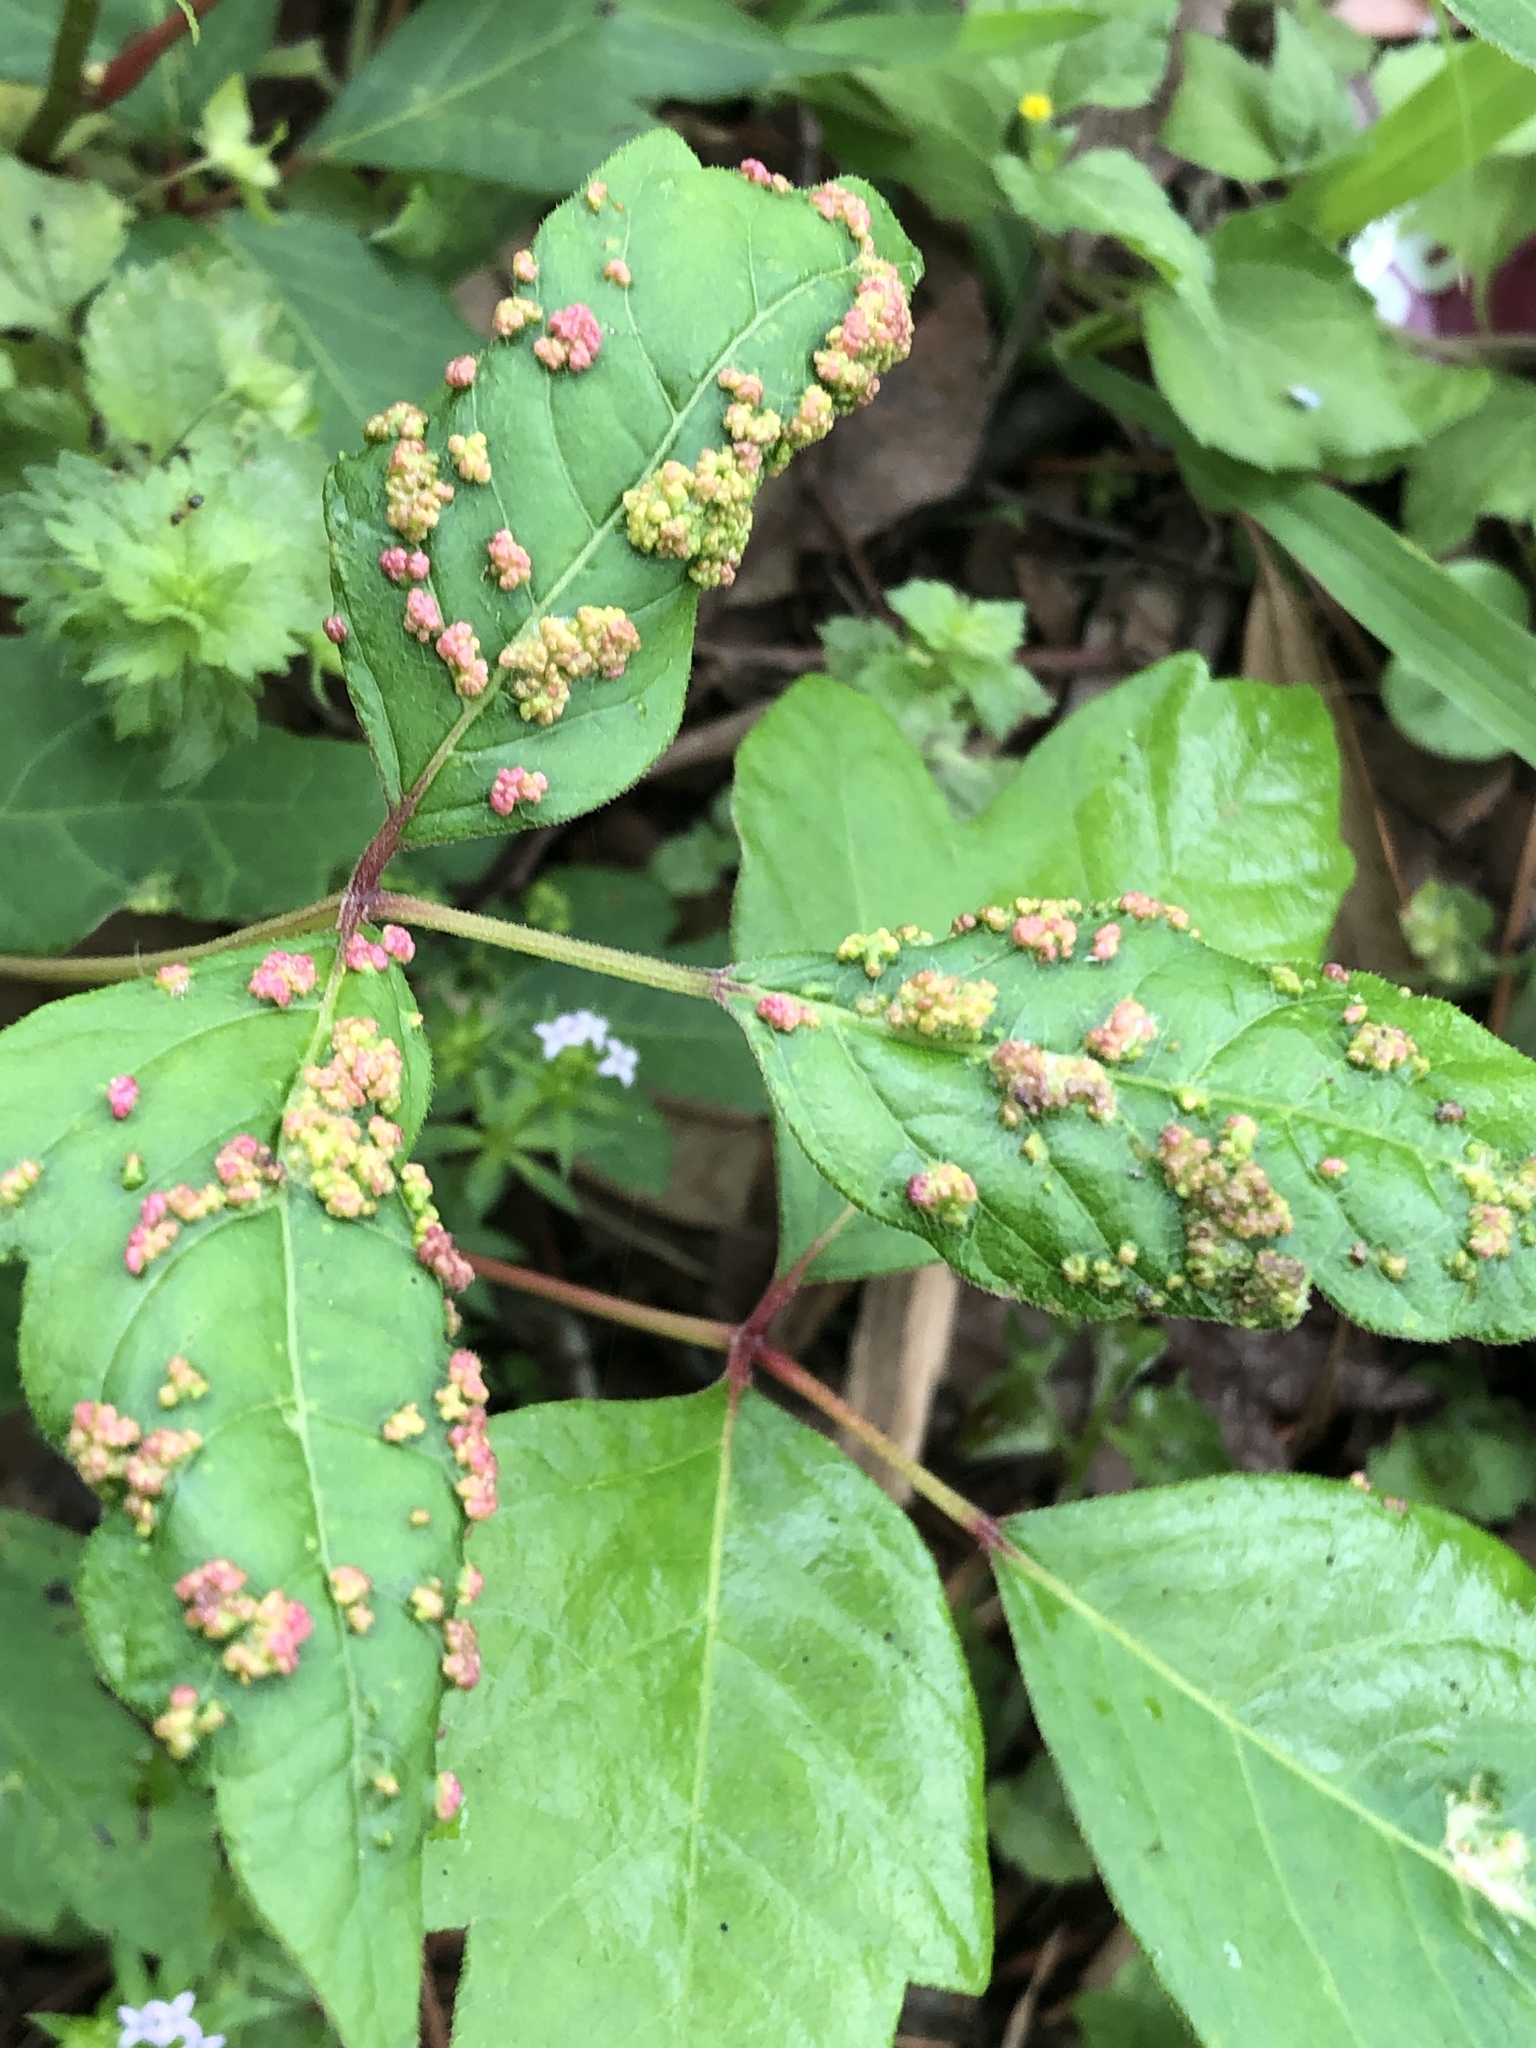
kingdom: Animalia
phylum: Arthropoda
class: Arachnida
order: Trombidiformes
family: Eriophyidae
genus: Aculops
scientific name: Aculops
